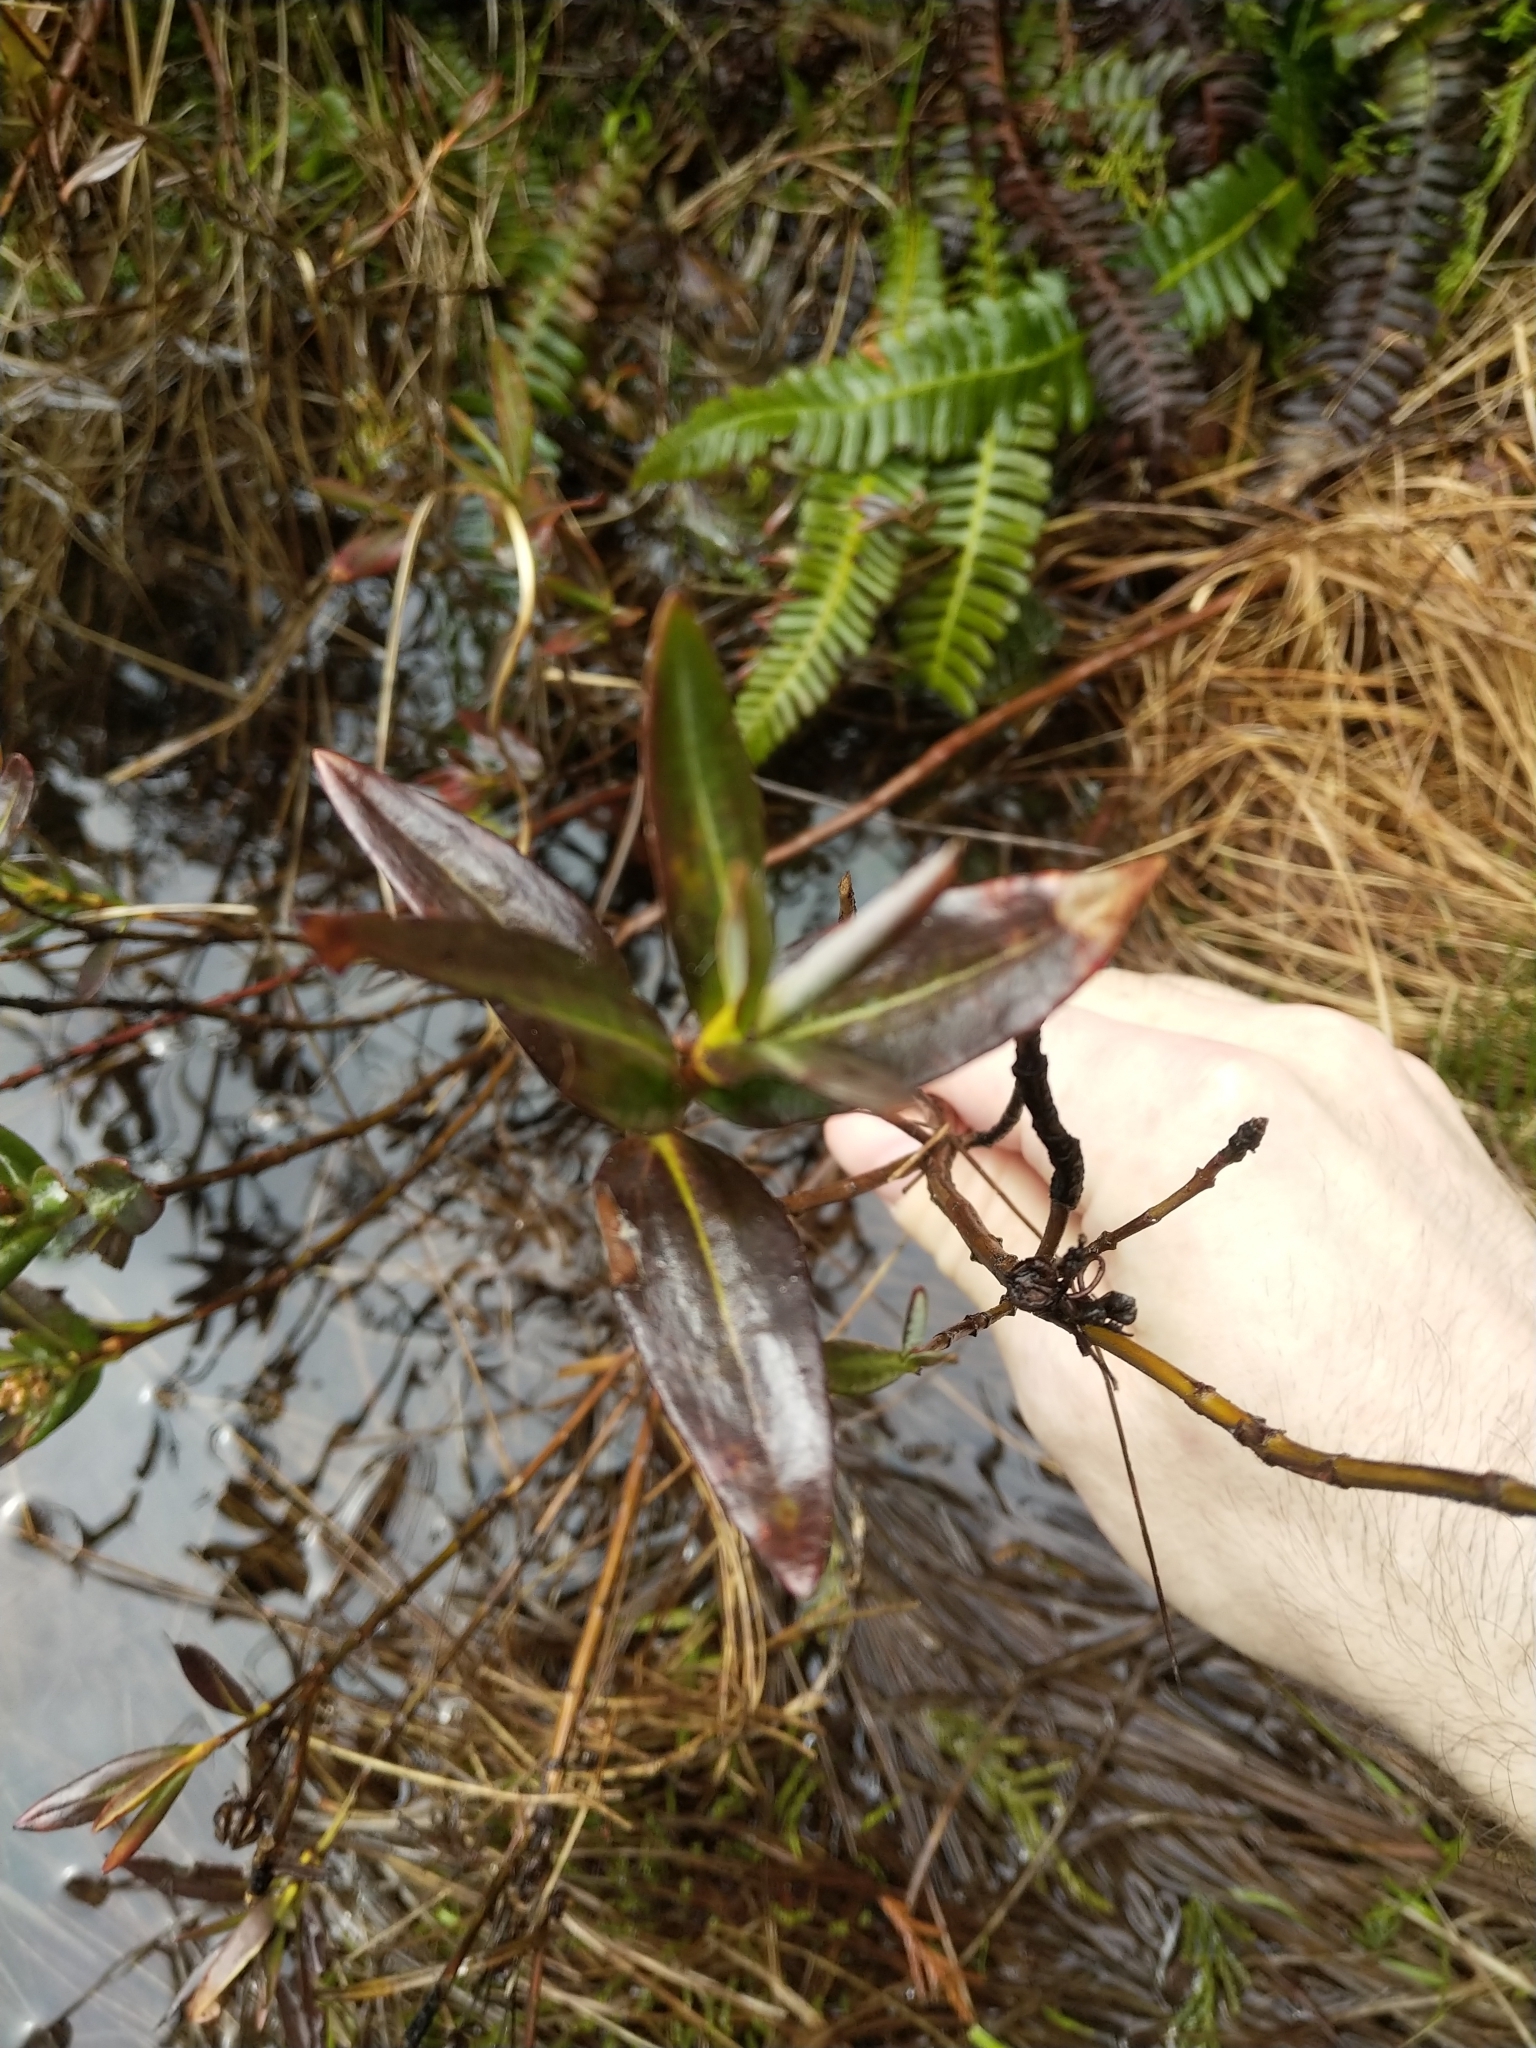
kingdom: Plantae
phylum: Tracheophyta
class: Magnoliopsida
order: Ericales
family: Ericaceae
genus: Kalmia
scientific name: Kalmia microphylla
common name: Alpine bog laurel
